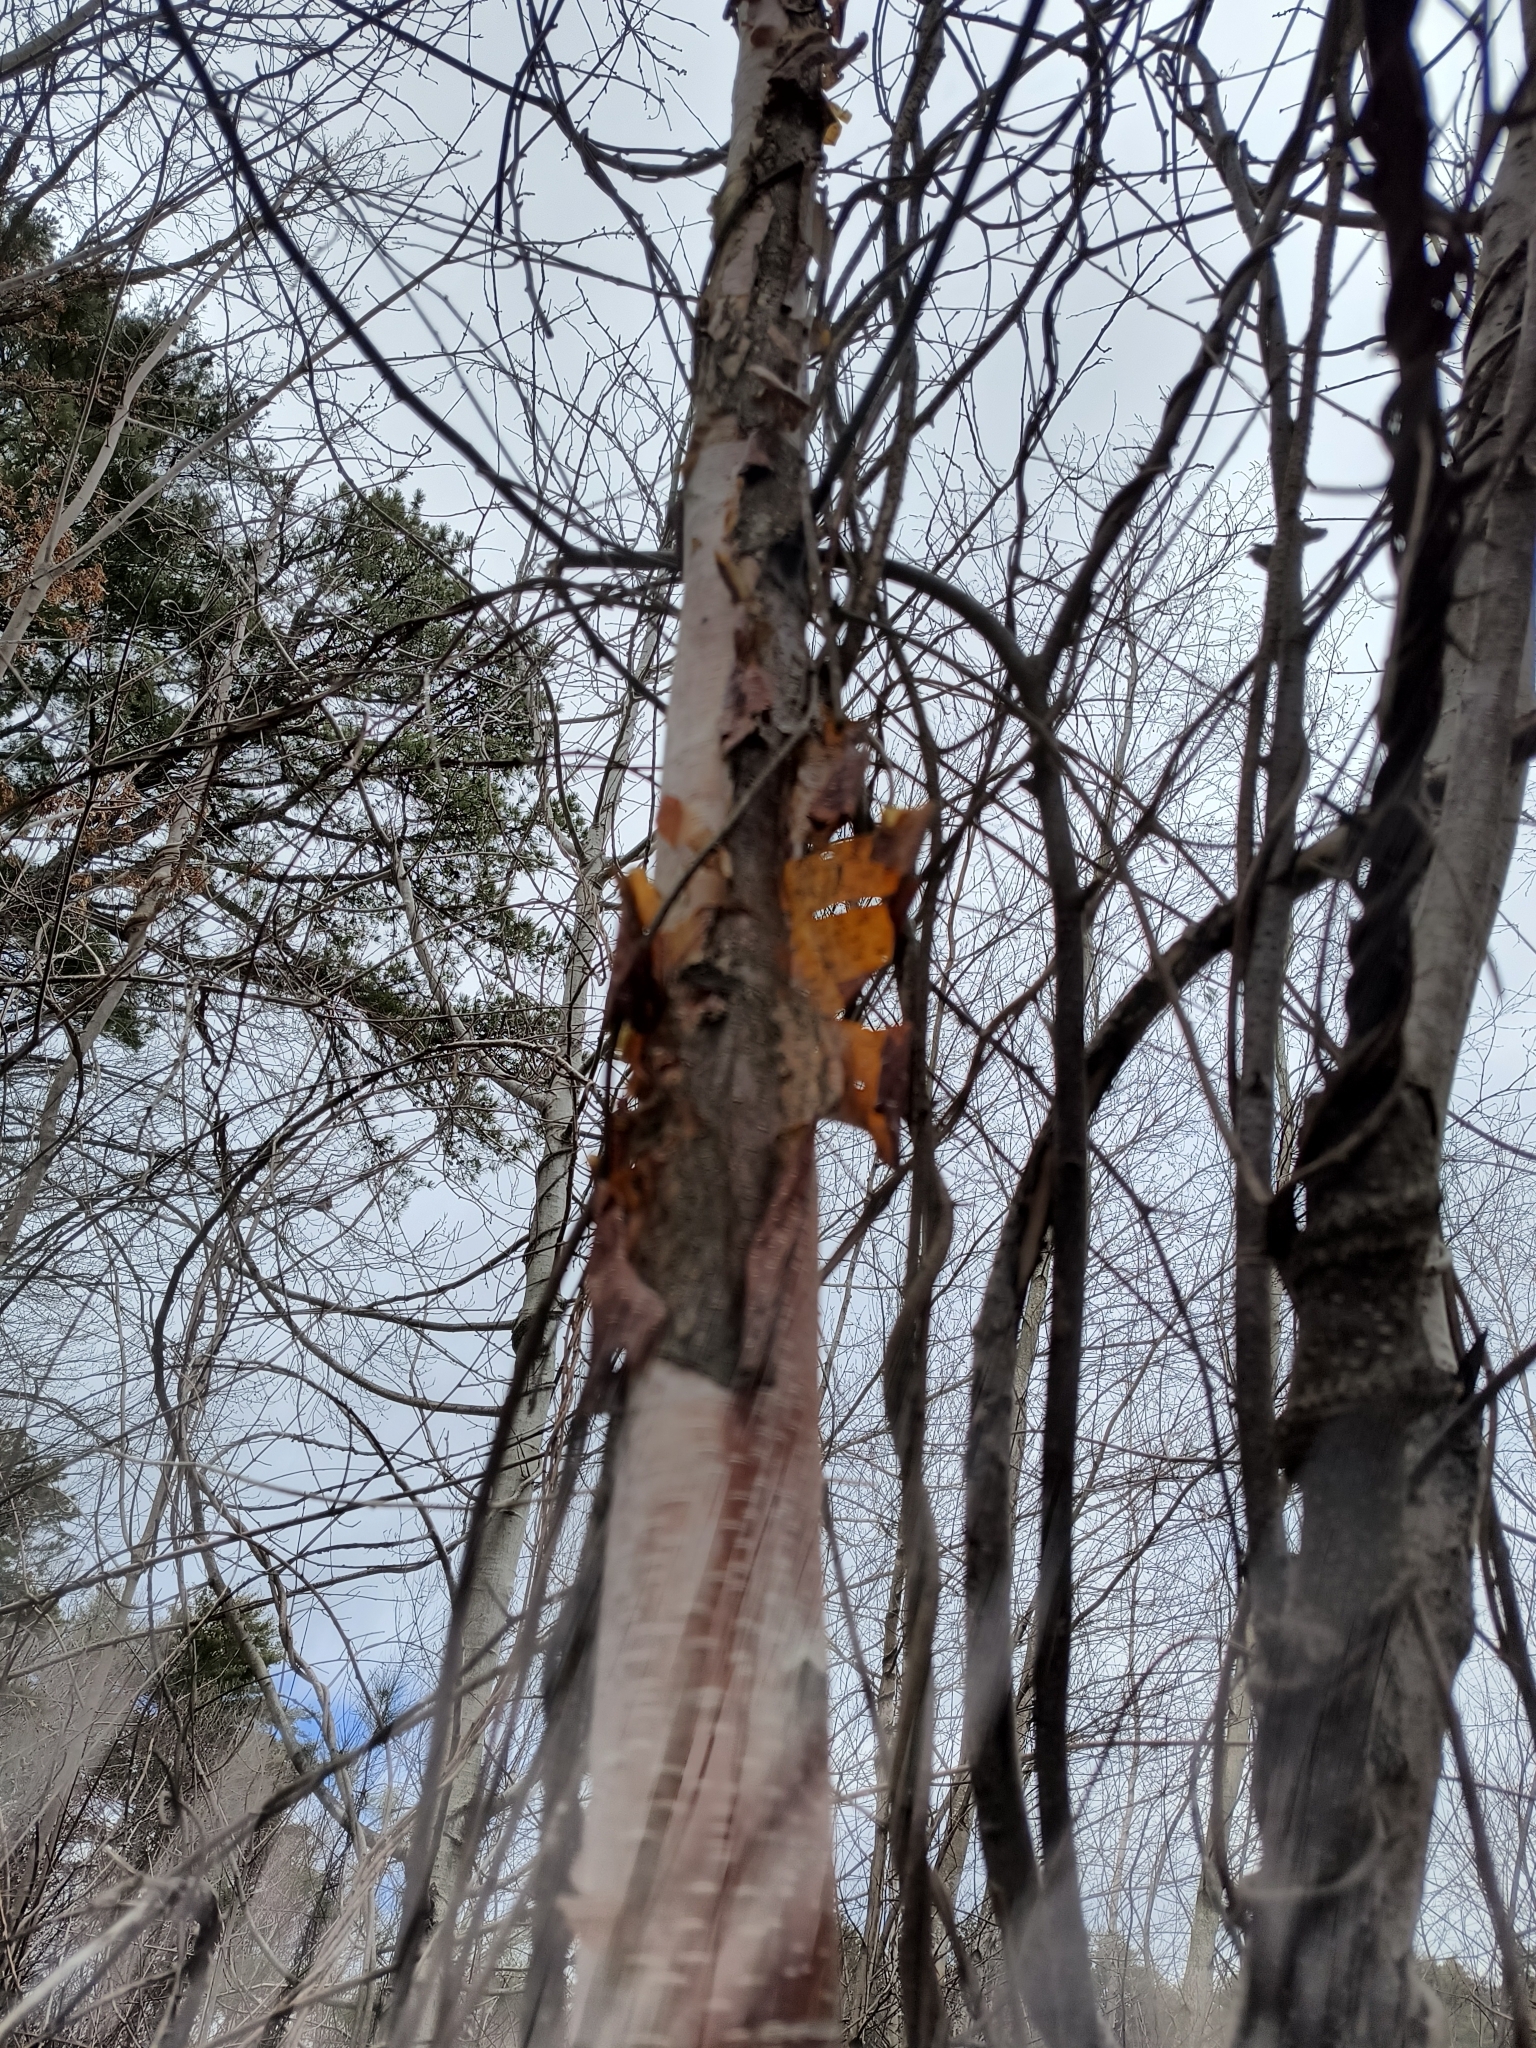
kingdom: Plantae
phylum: Tracheophyta
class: Magnoliopsida
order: Fagales
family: Betulaceae
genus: Betula
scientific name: Betula papyrifera
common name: Paper birch
